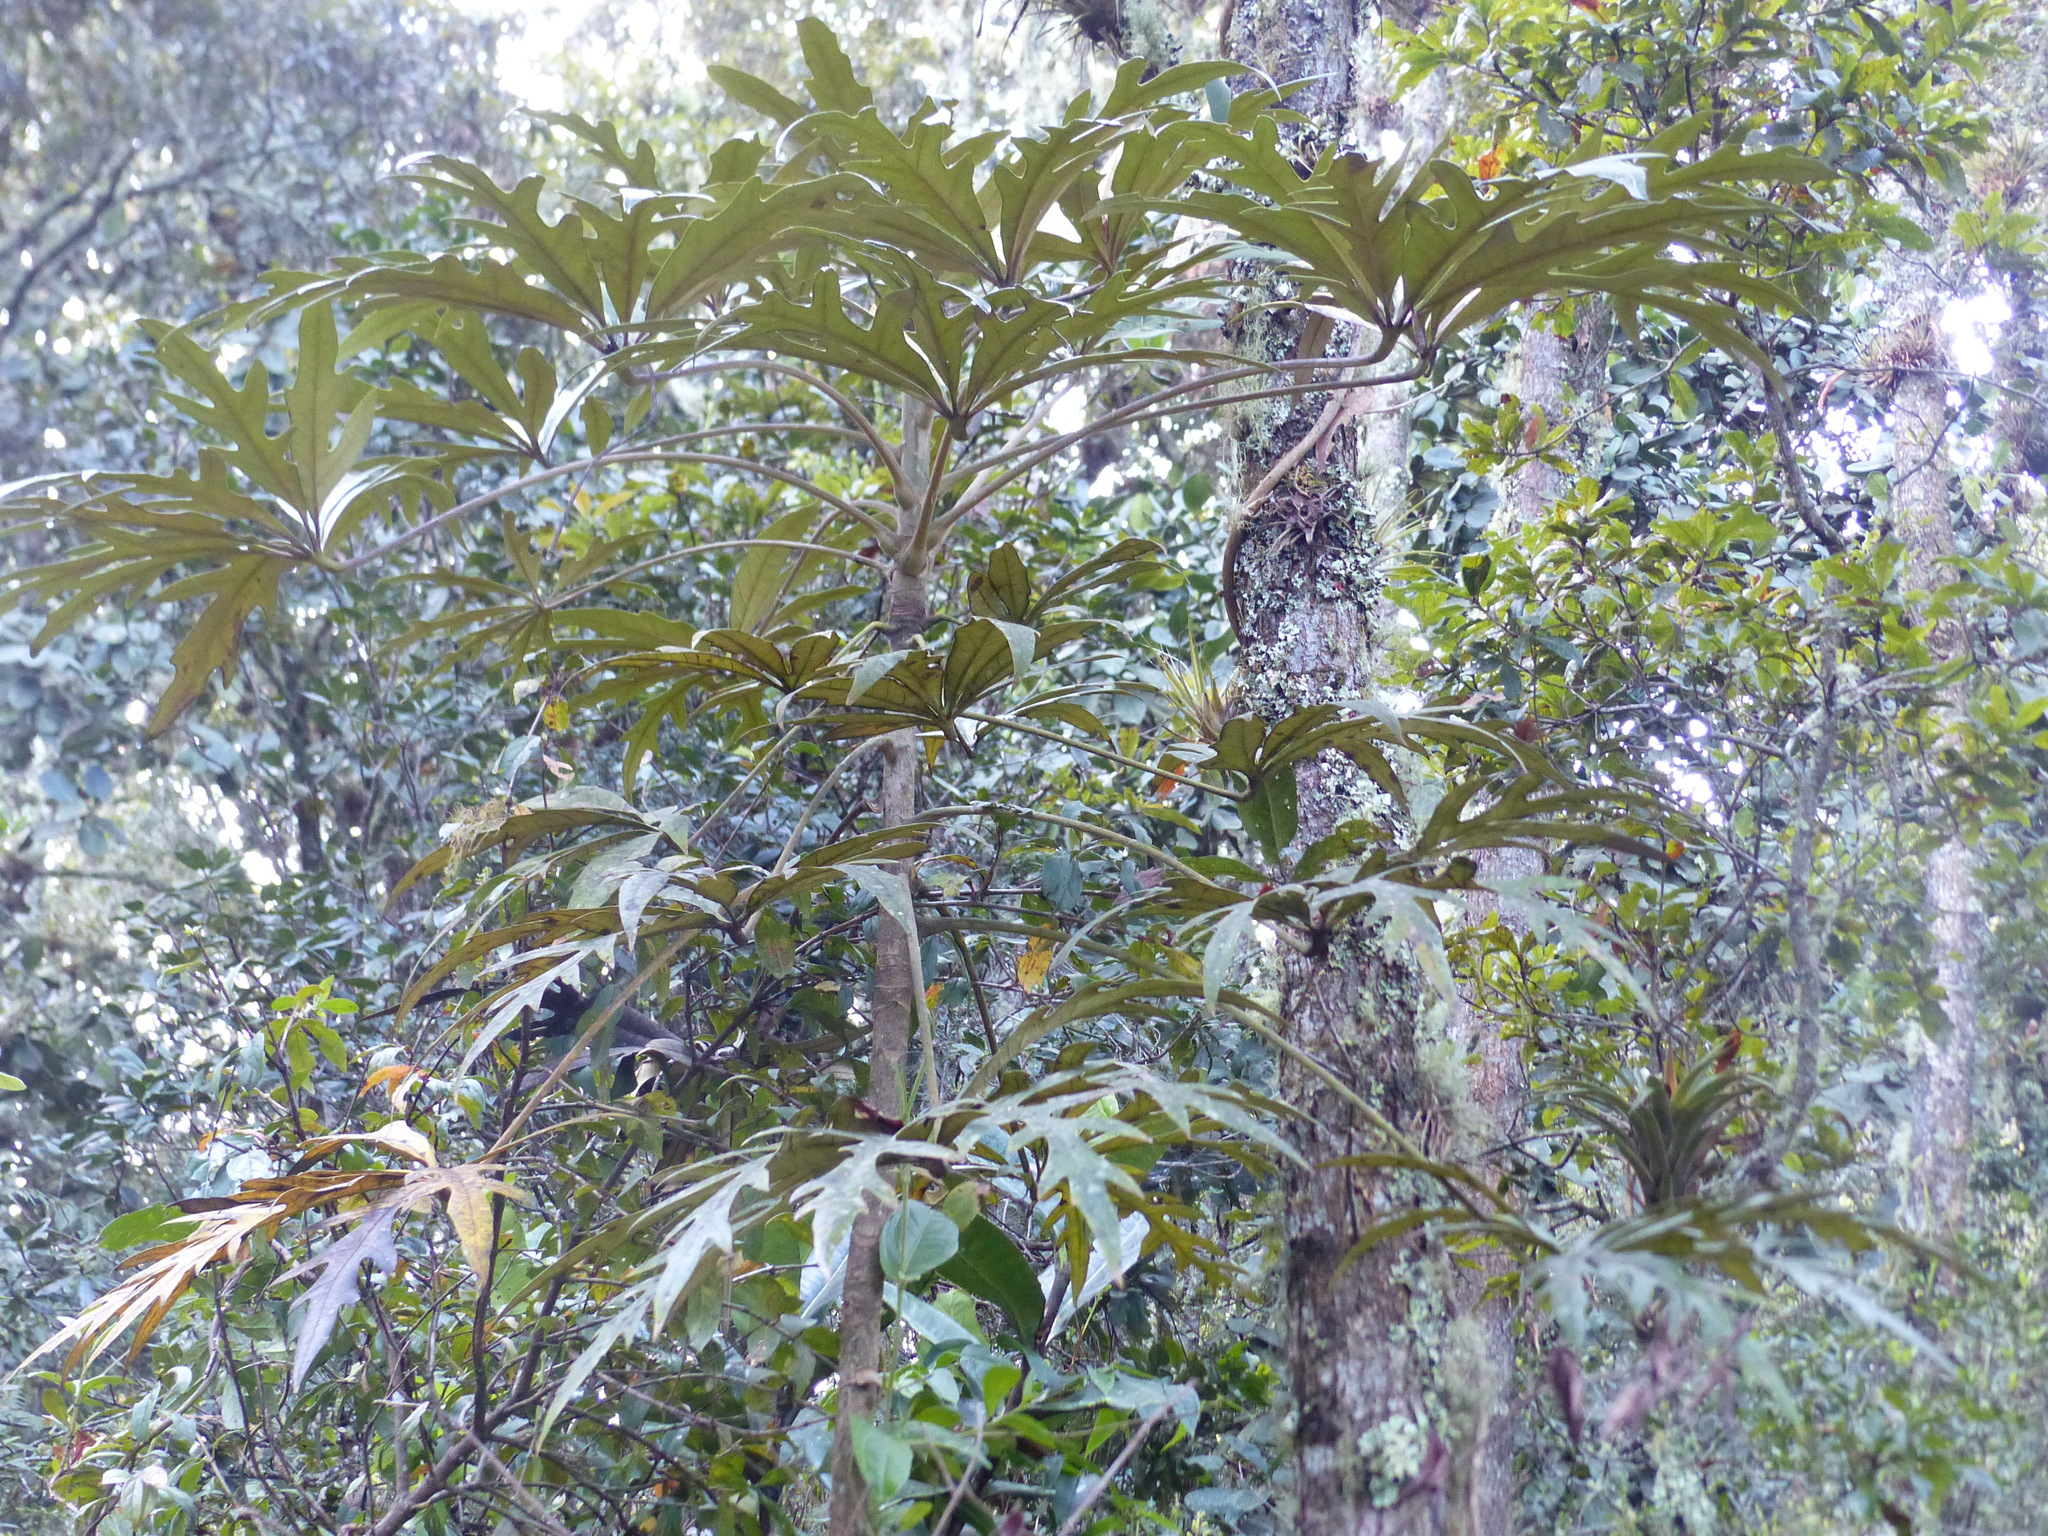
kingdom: Plantae
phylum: Tracheophyta
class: Magnoliopsida
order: Apiales
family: Araliaceae
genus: Oreopanax
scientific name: Oreopanax incisus
